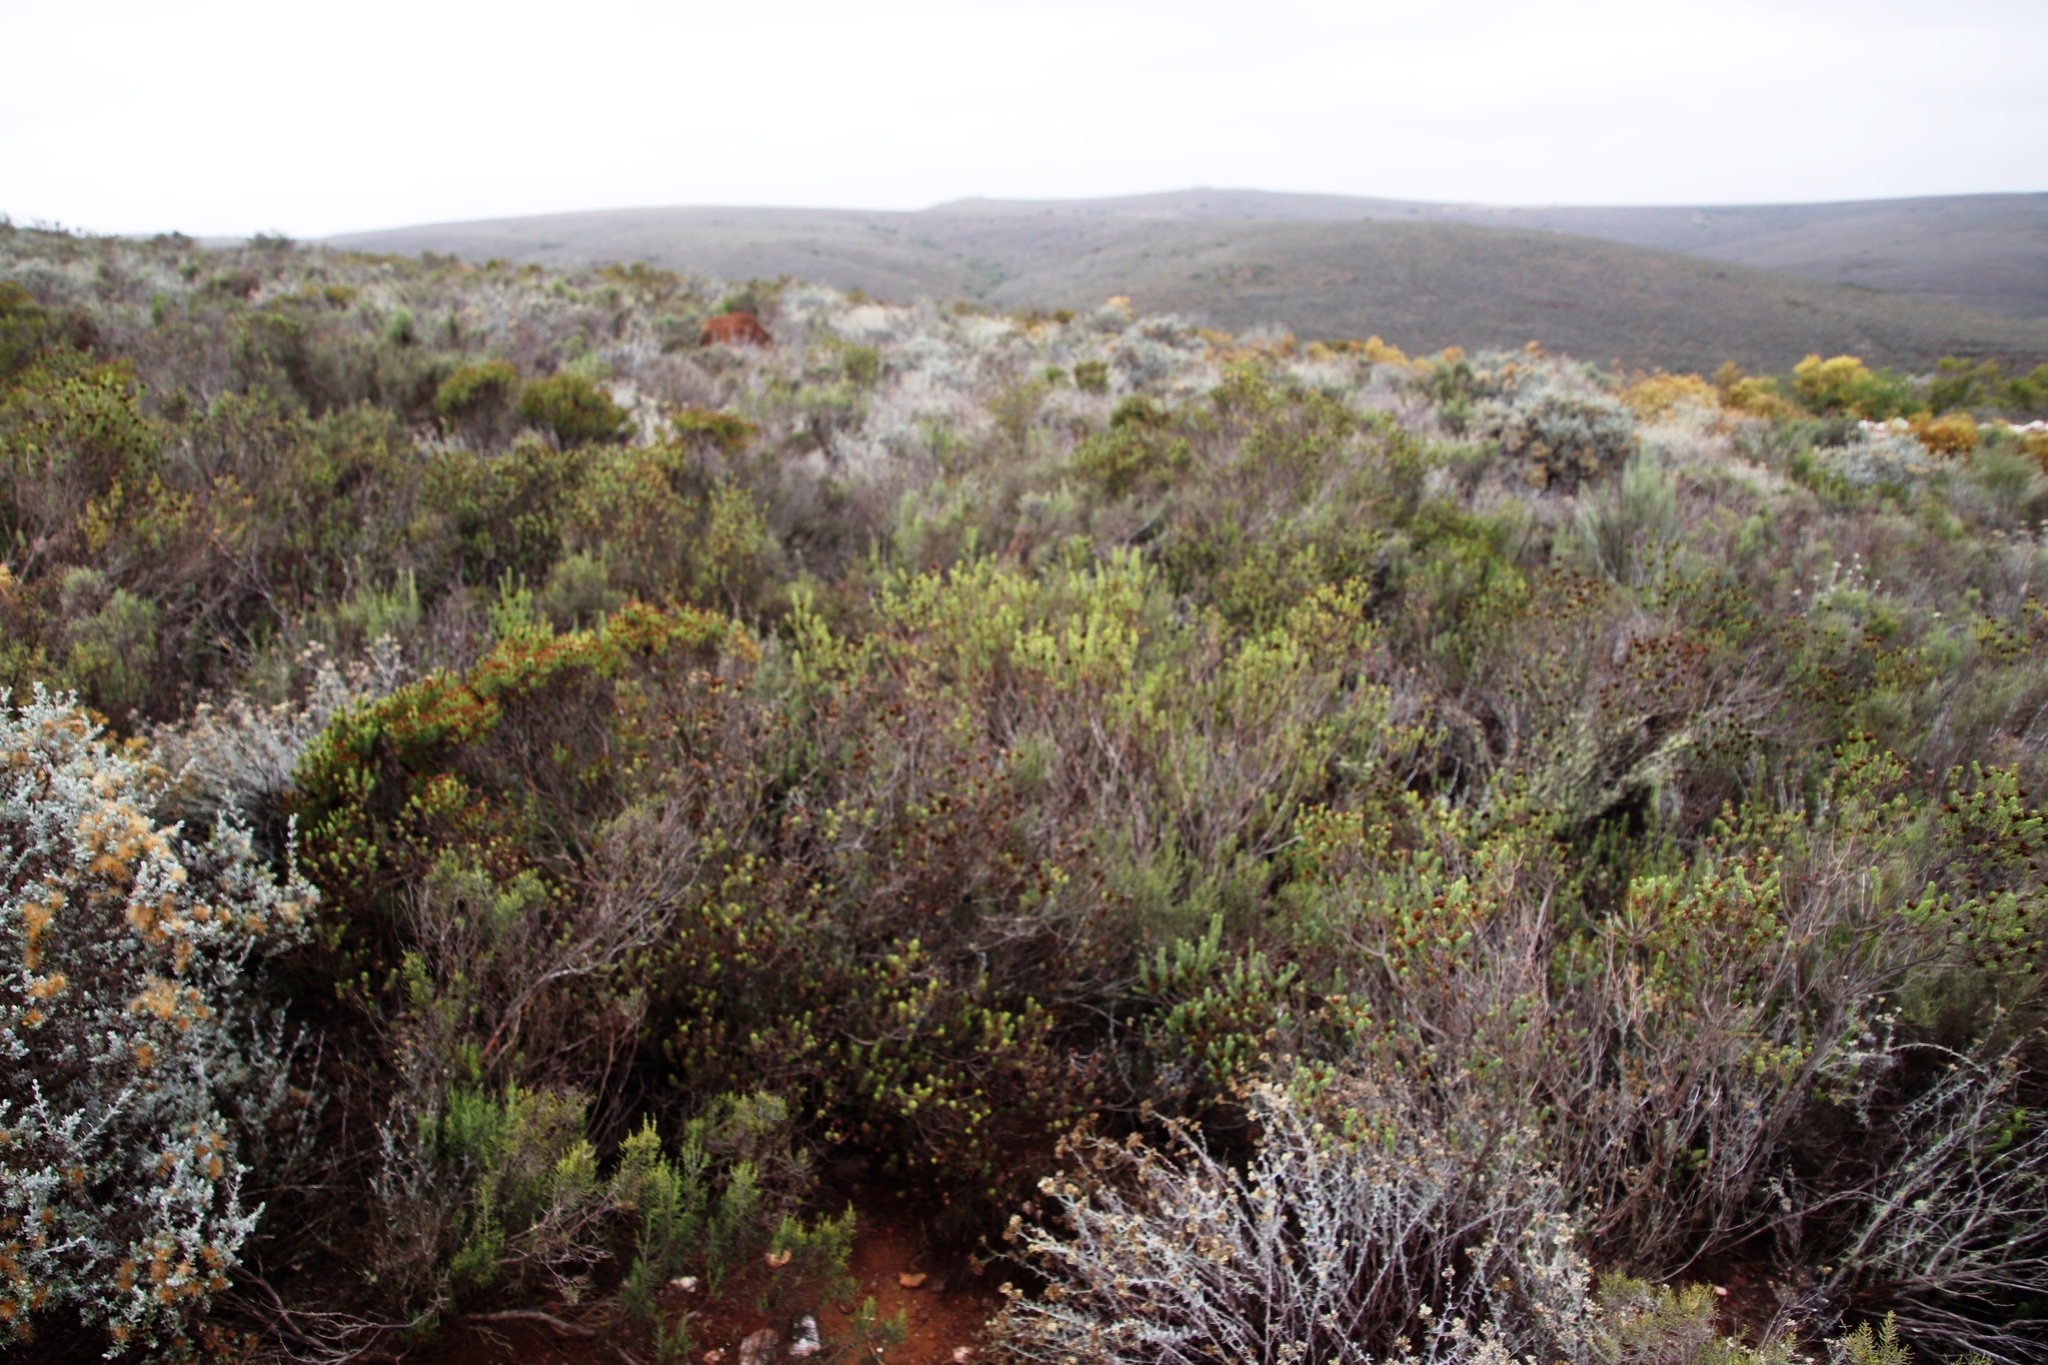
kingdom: Plantae
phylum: Tracheophyta
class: Magnoliopsida
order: Asterales
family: Asteraceae
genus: Oedera
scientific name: Oedera uniflora
